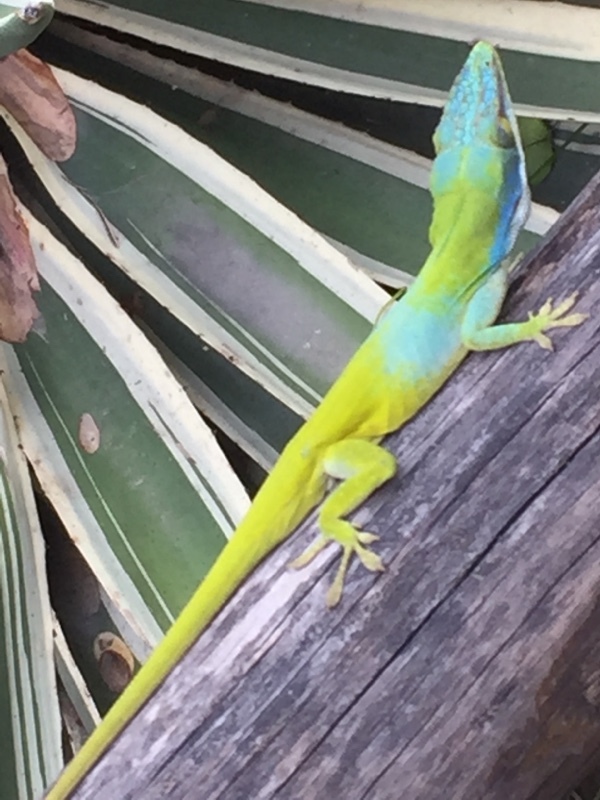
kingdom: Animalia
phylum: Chordata
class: Squamata
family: Dactyloidae
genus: Anolis
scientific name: Anolis allisoni
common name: Allison's anole
